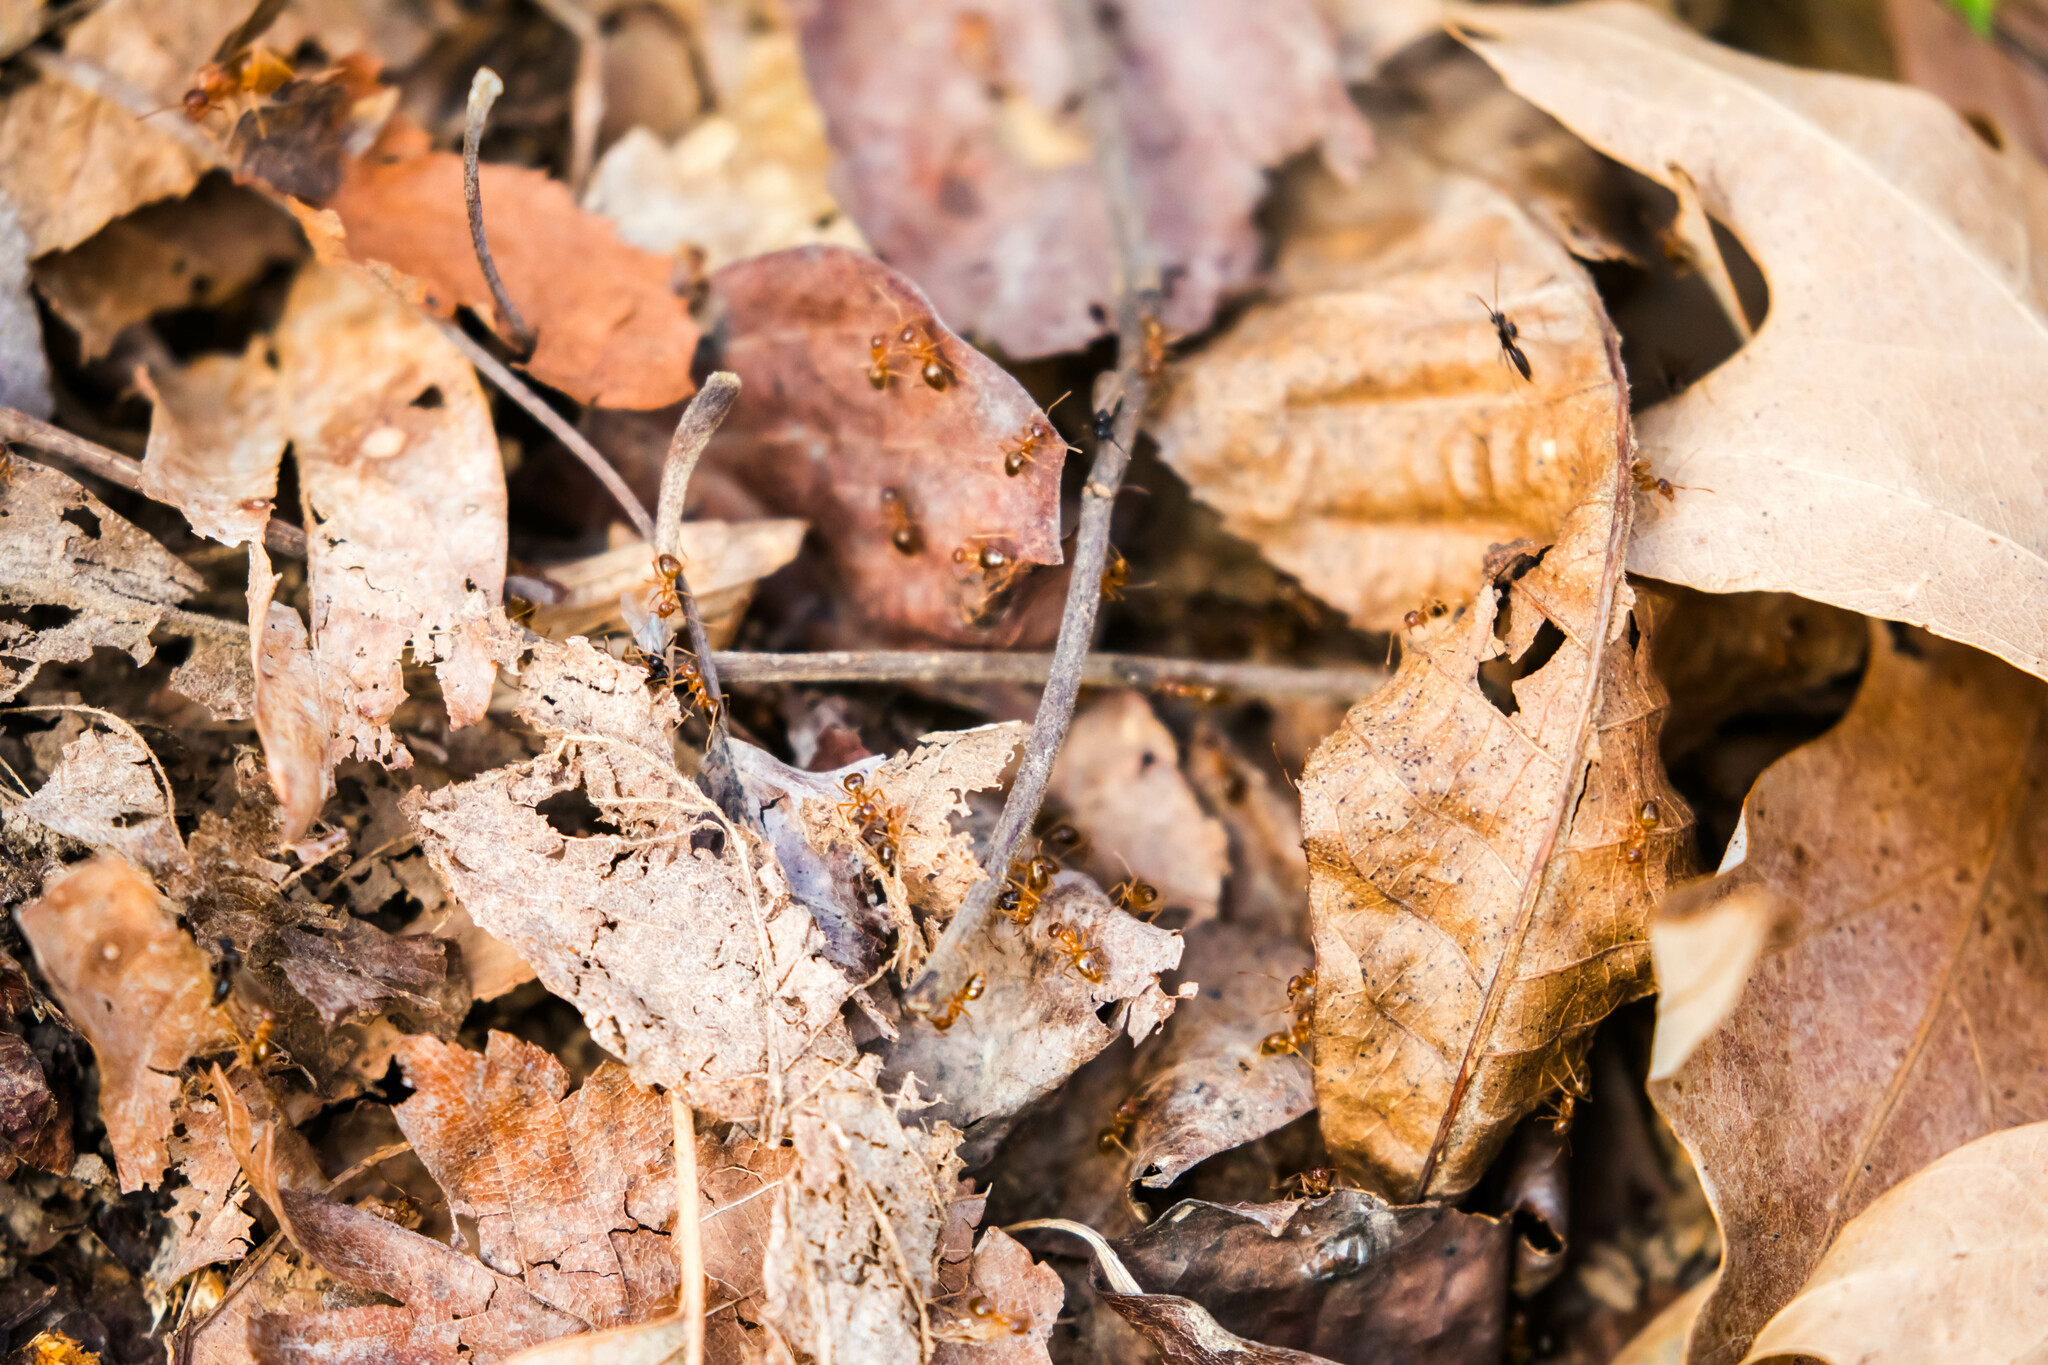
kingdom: Animalia
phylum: Arthropoda
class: Insecta
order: Hymenoptera
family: Formicidae
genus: Prenolepis
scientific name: Prenolepis imparis
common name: Small honey ant
